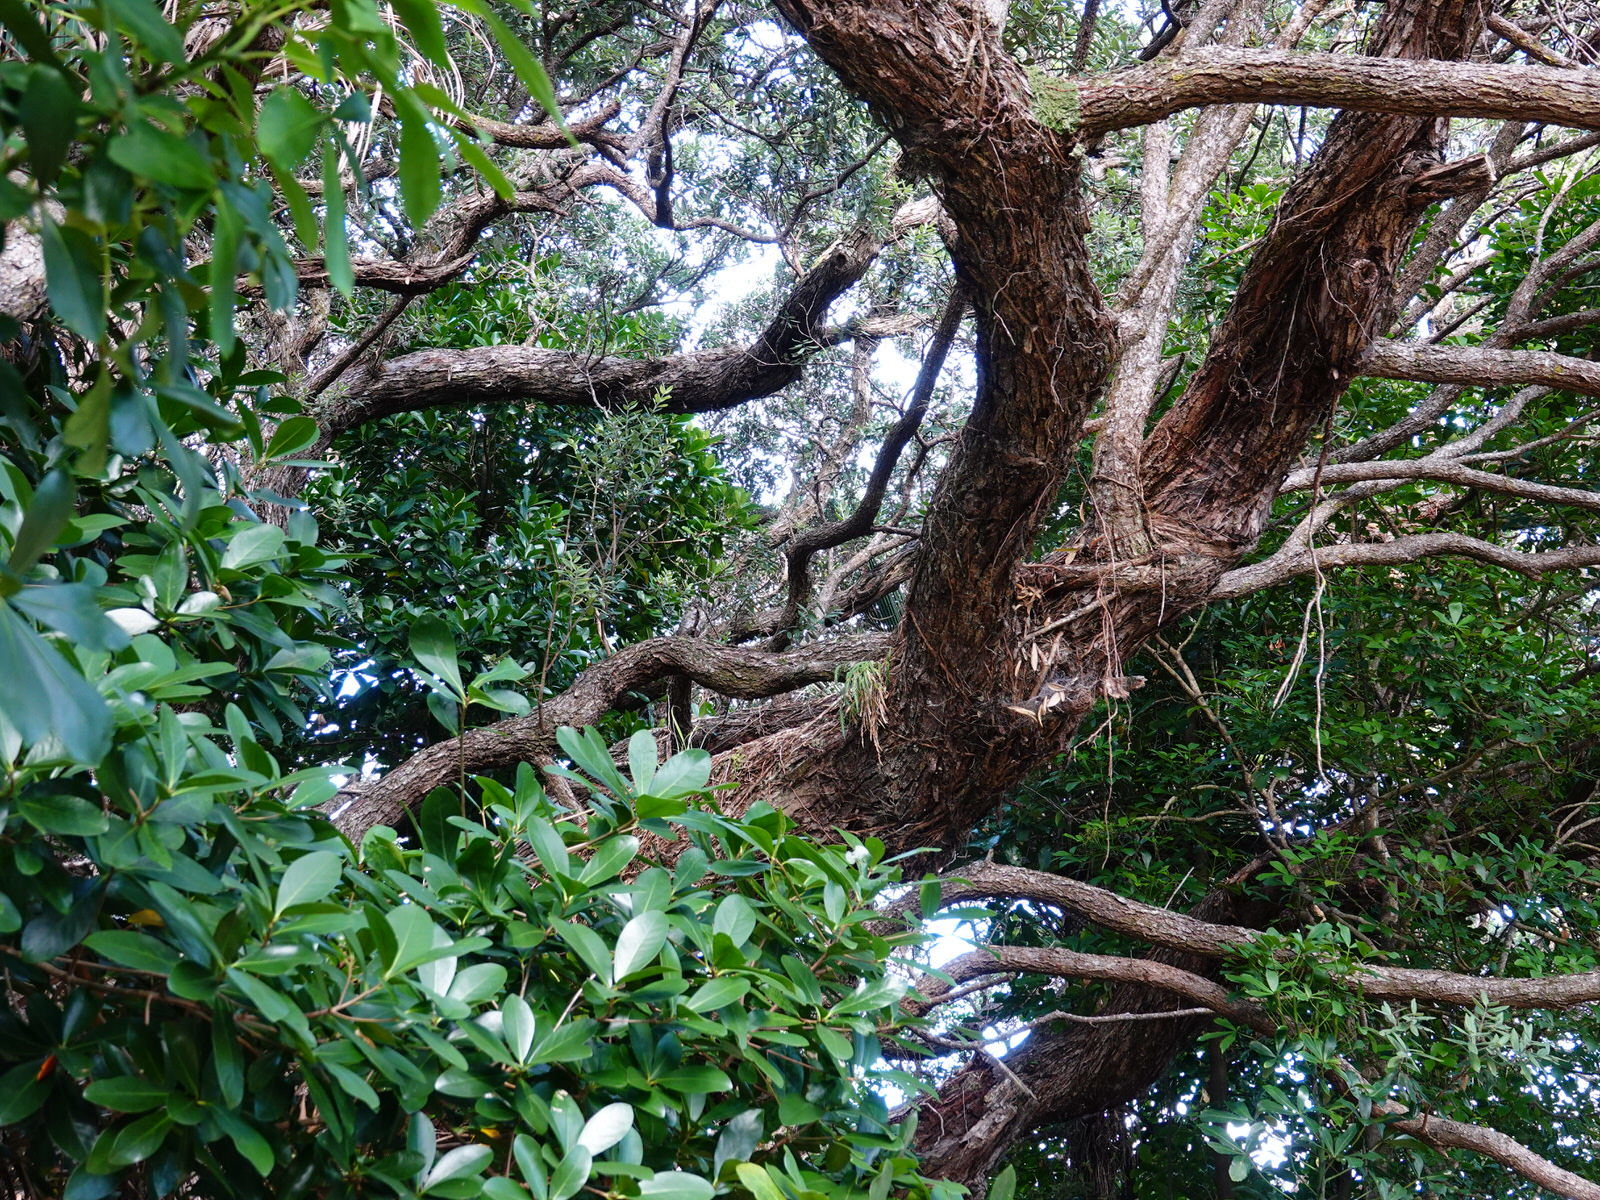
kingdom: Plantae
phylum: Tracheophyta
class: Polypodiopsida
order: Polypodiales
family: Aspleniaceae
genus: Asplenium
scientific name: Asplenium flaccidum
